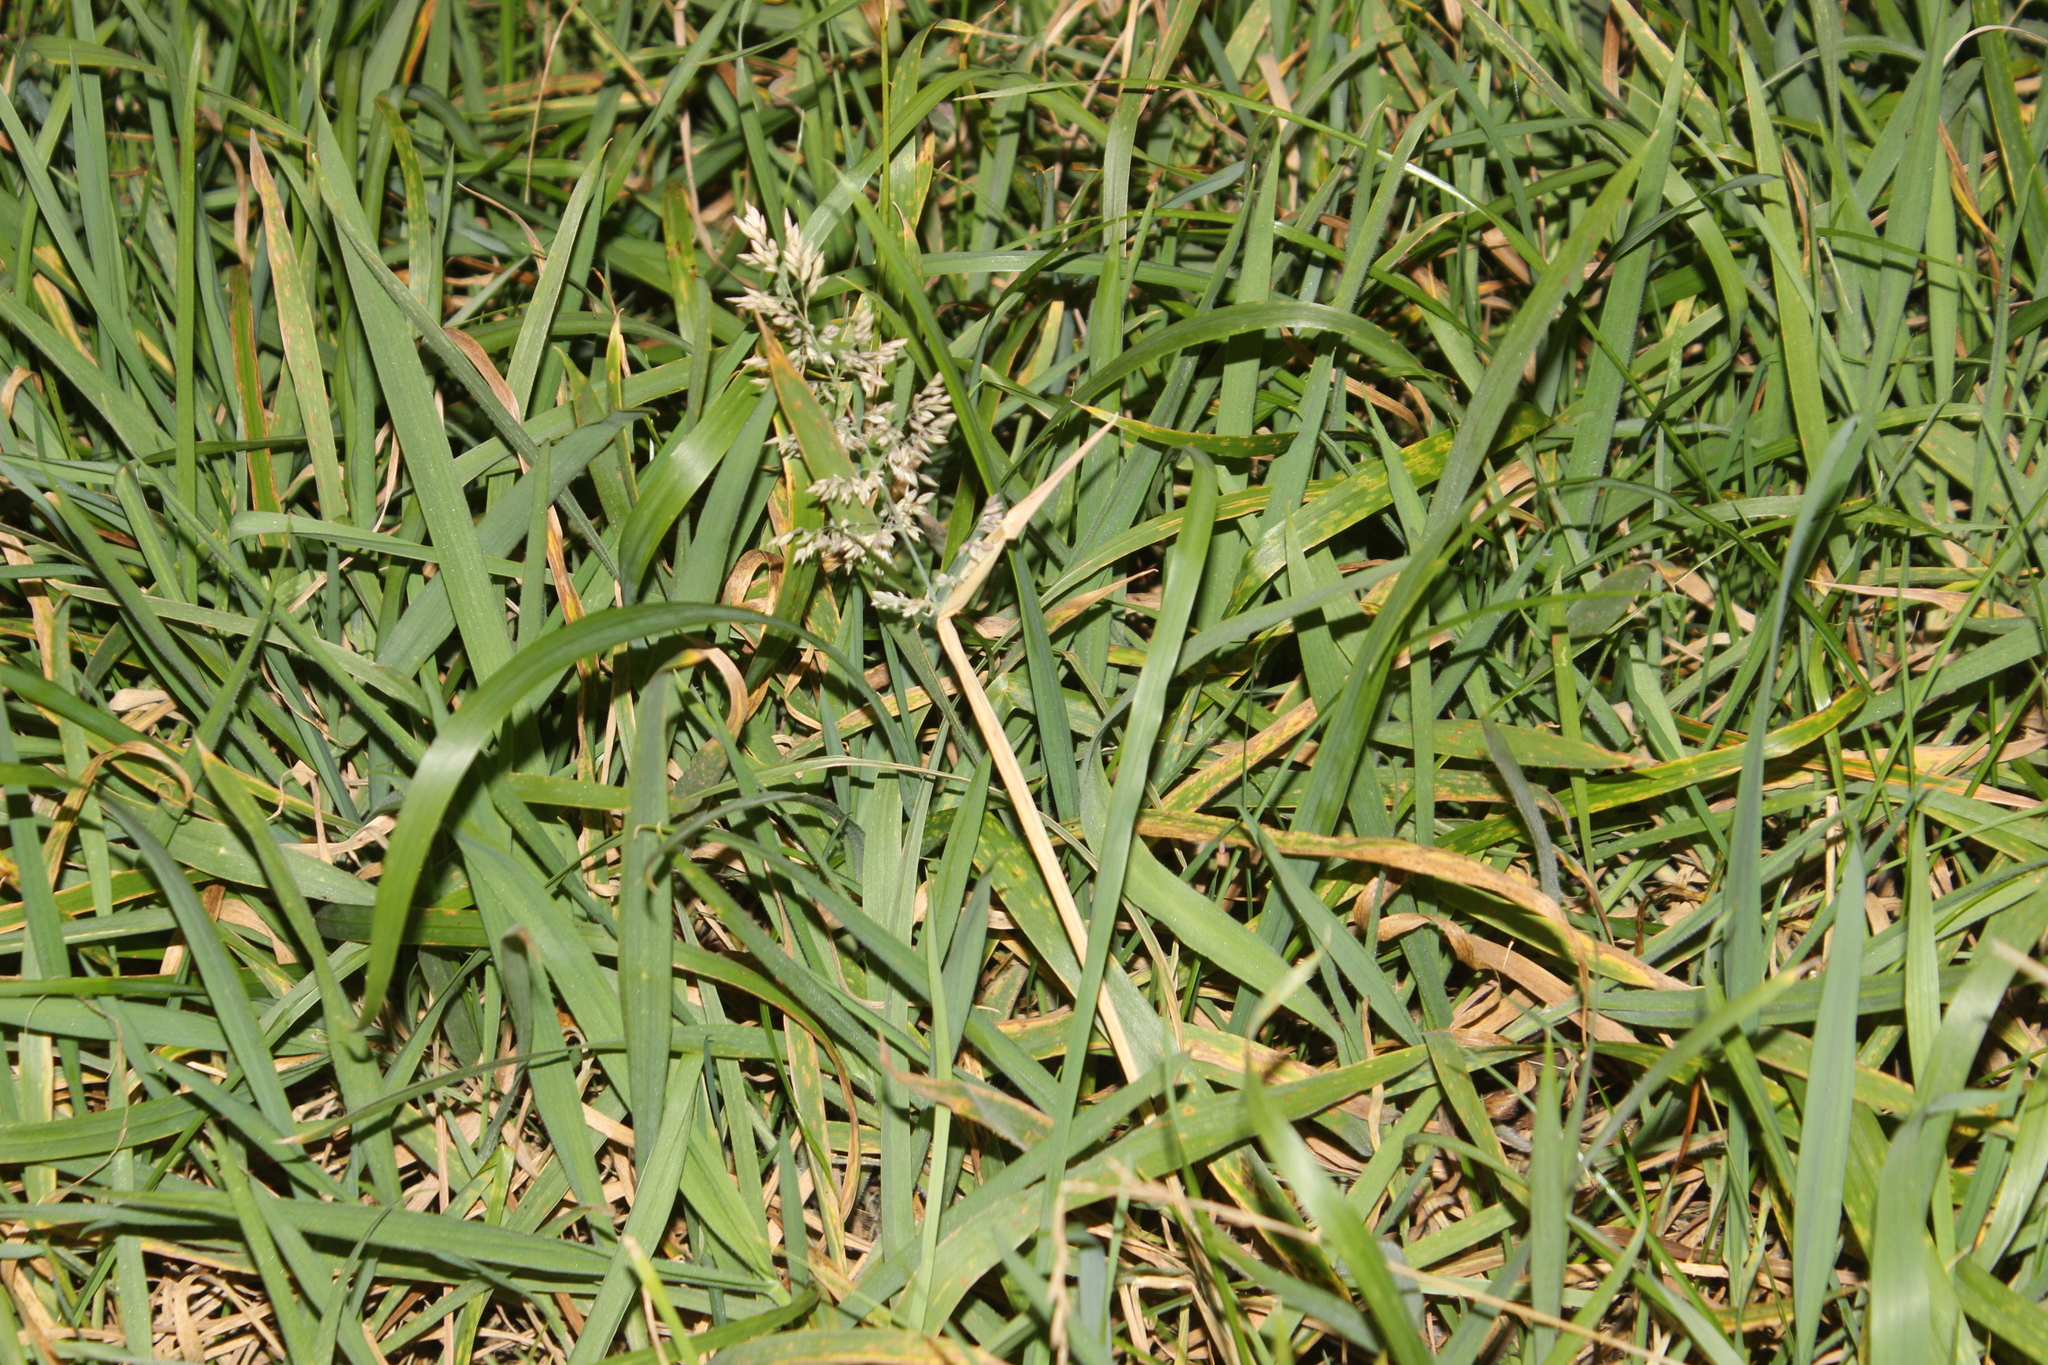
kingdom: Plantae
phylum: Tracheophyta
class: Liliopsida
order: Poales
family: Poaceae
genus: Holcus
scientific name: Holcus lanatus
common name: Yorkshire-fog
